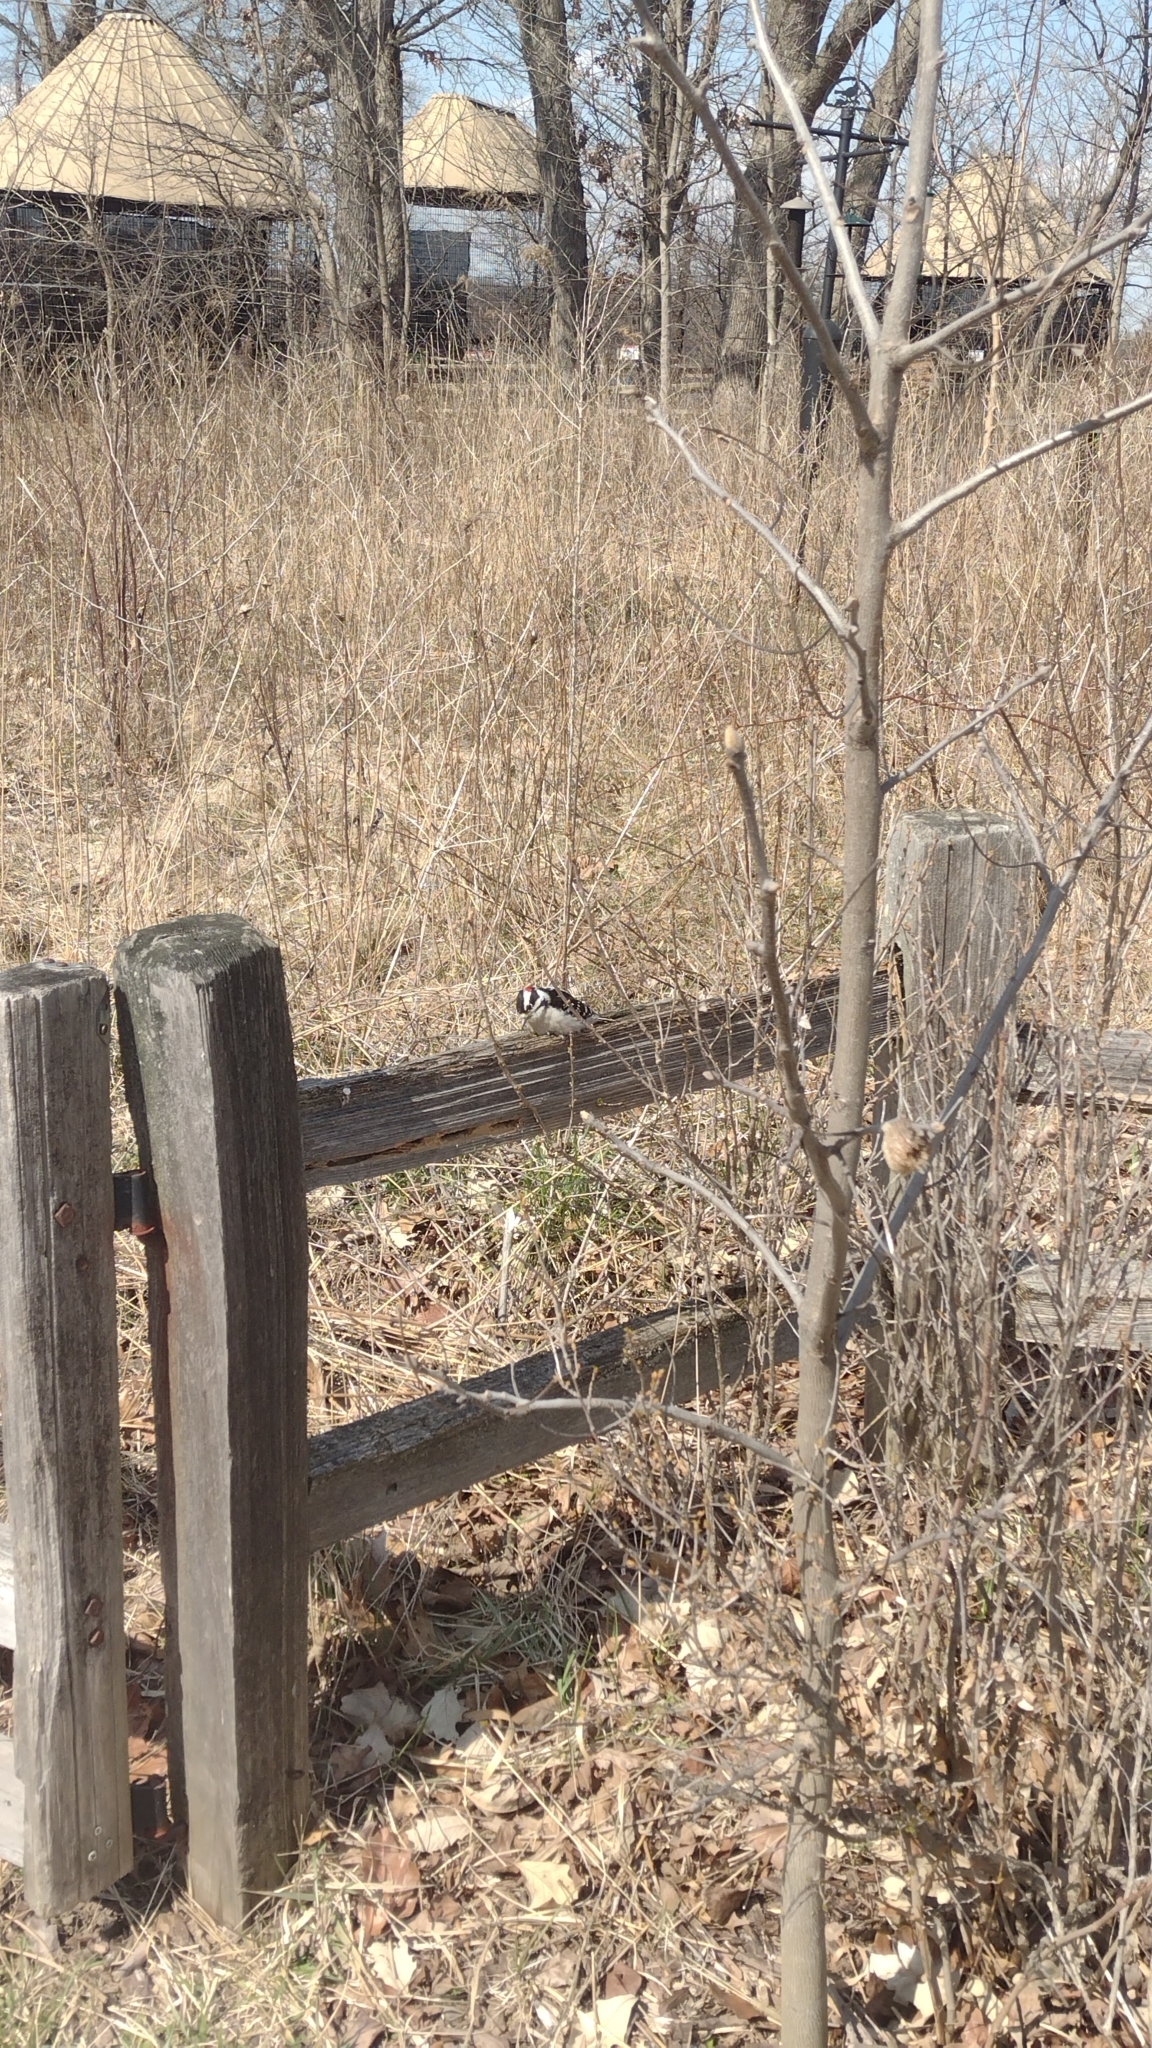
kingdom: Animalia
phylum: Chordata
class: Aves
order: Piciformes
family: Picidae
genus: Dryobates
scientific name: Dryobates pubescens
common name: Downy woodpecker
